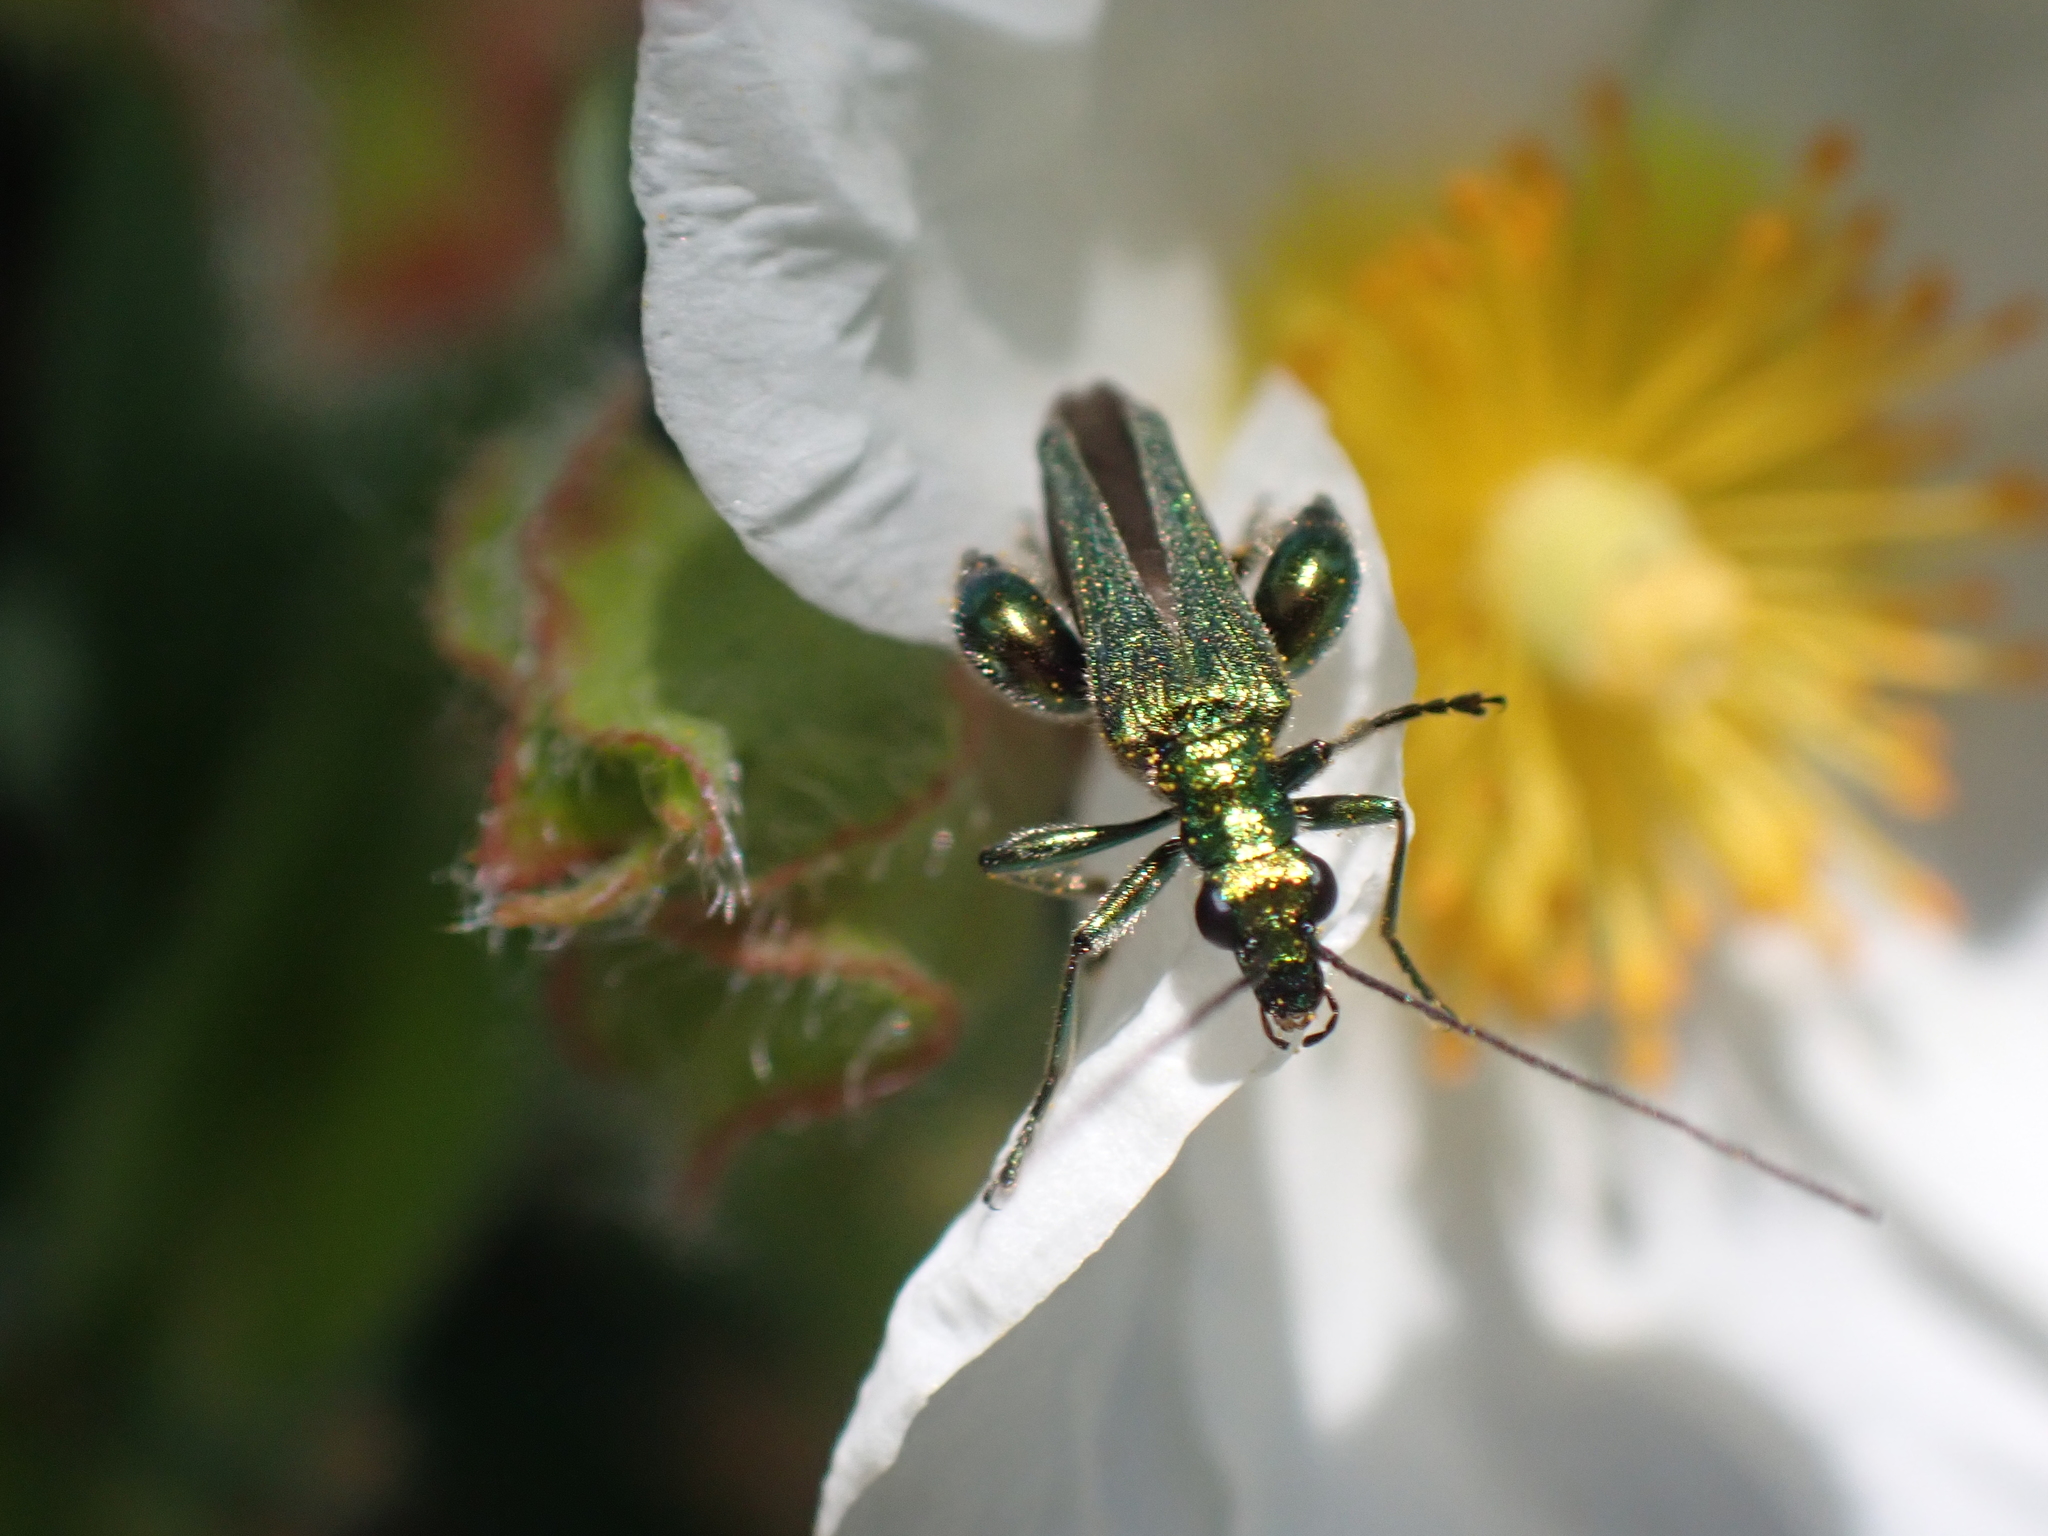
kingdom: Animalia
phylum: Arthropoda
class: Insecta
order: Coleoptera
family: Oedemeridae
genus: Oedemera
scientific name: Oedemera nobilis
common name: Swollen-thighed beetle
